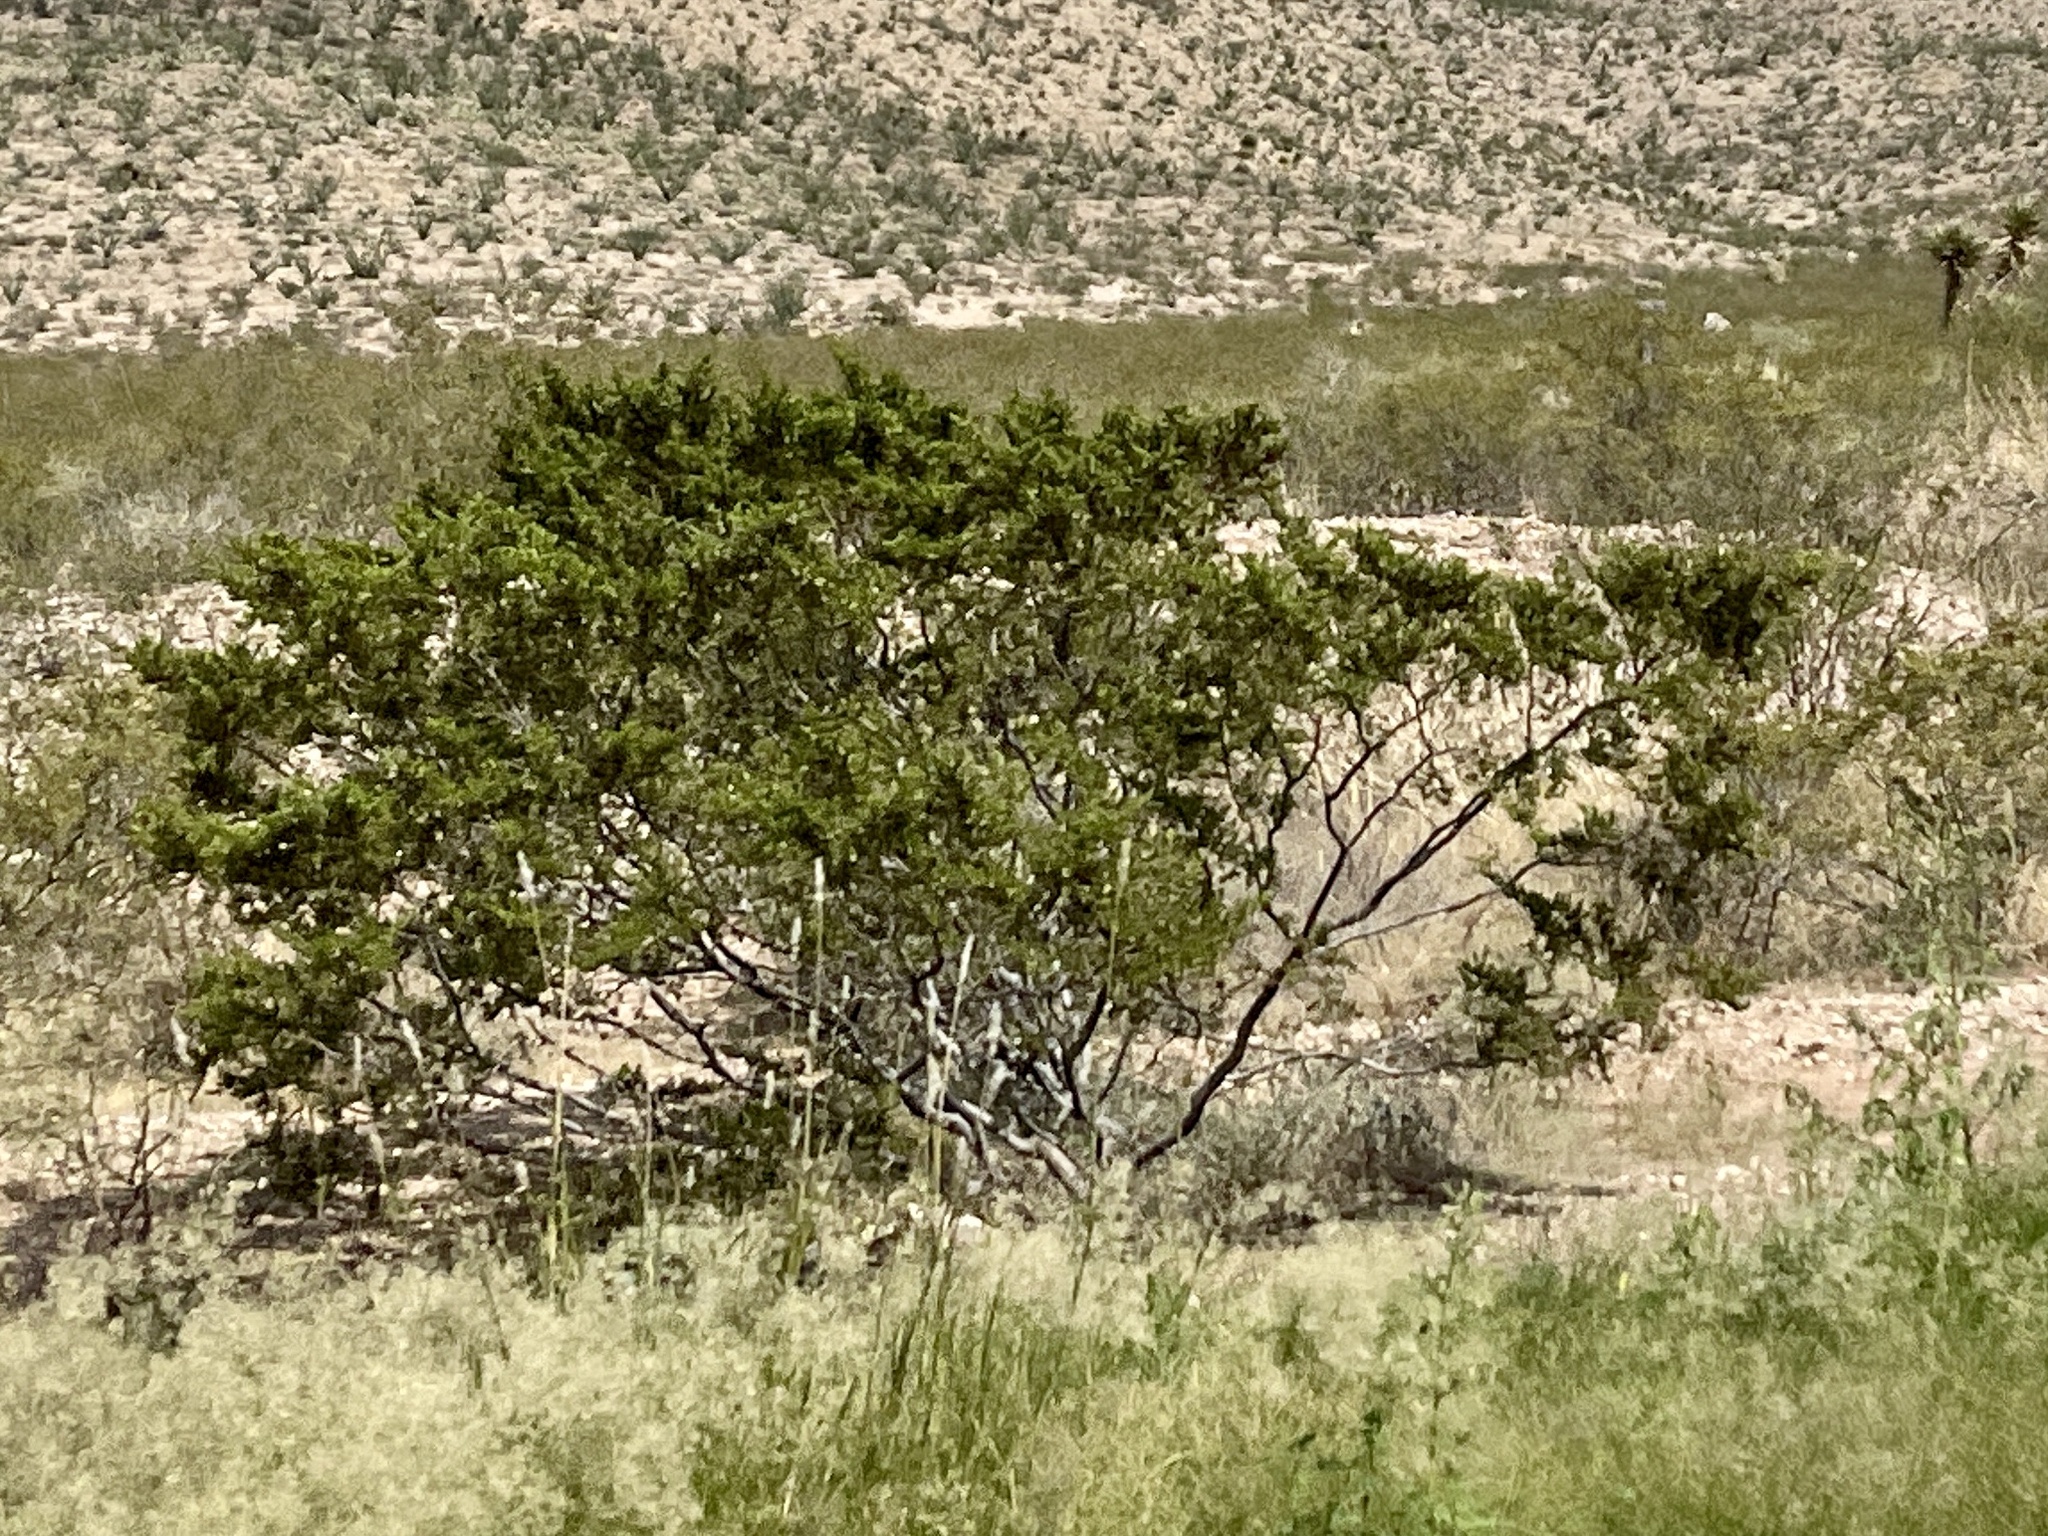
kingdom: Plantae
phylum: Tracheophyta
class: Magnoliopsida
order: Zygophyllales
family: Zygophyllaceae
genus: Larrea
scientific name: Larrea tridentata
